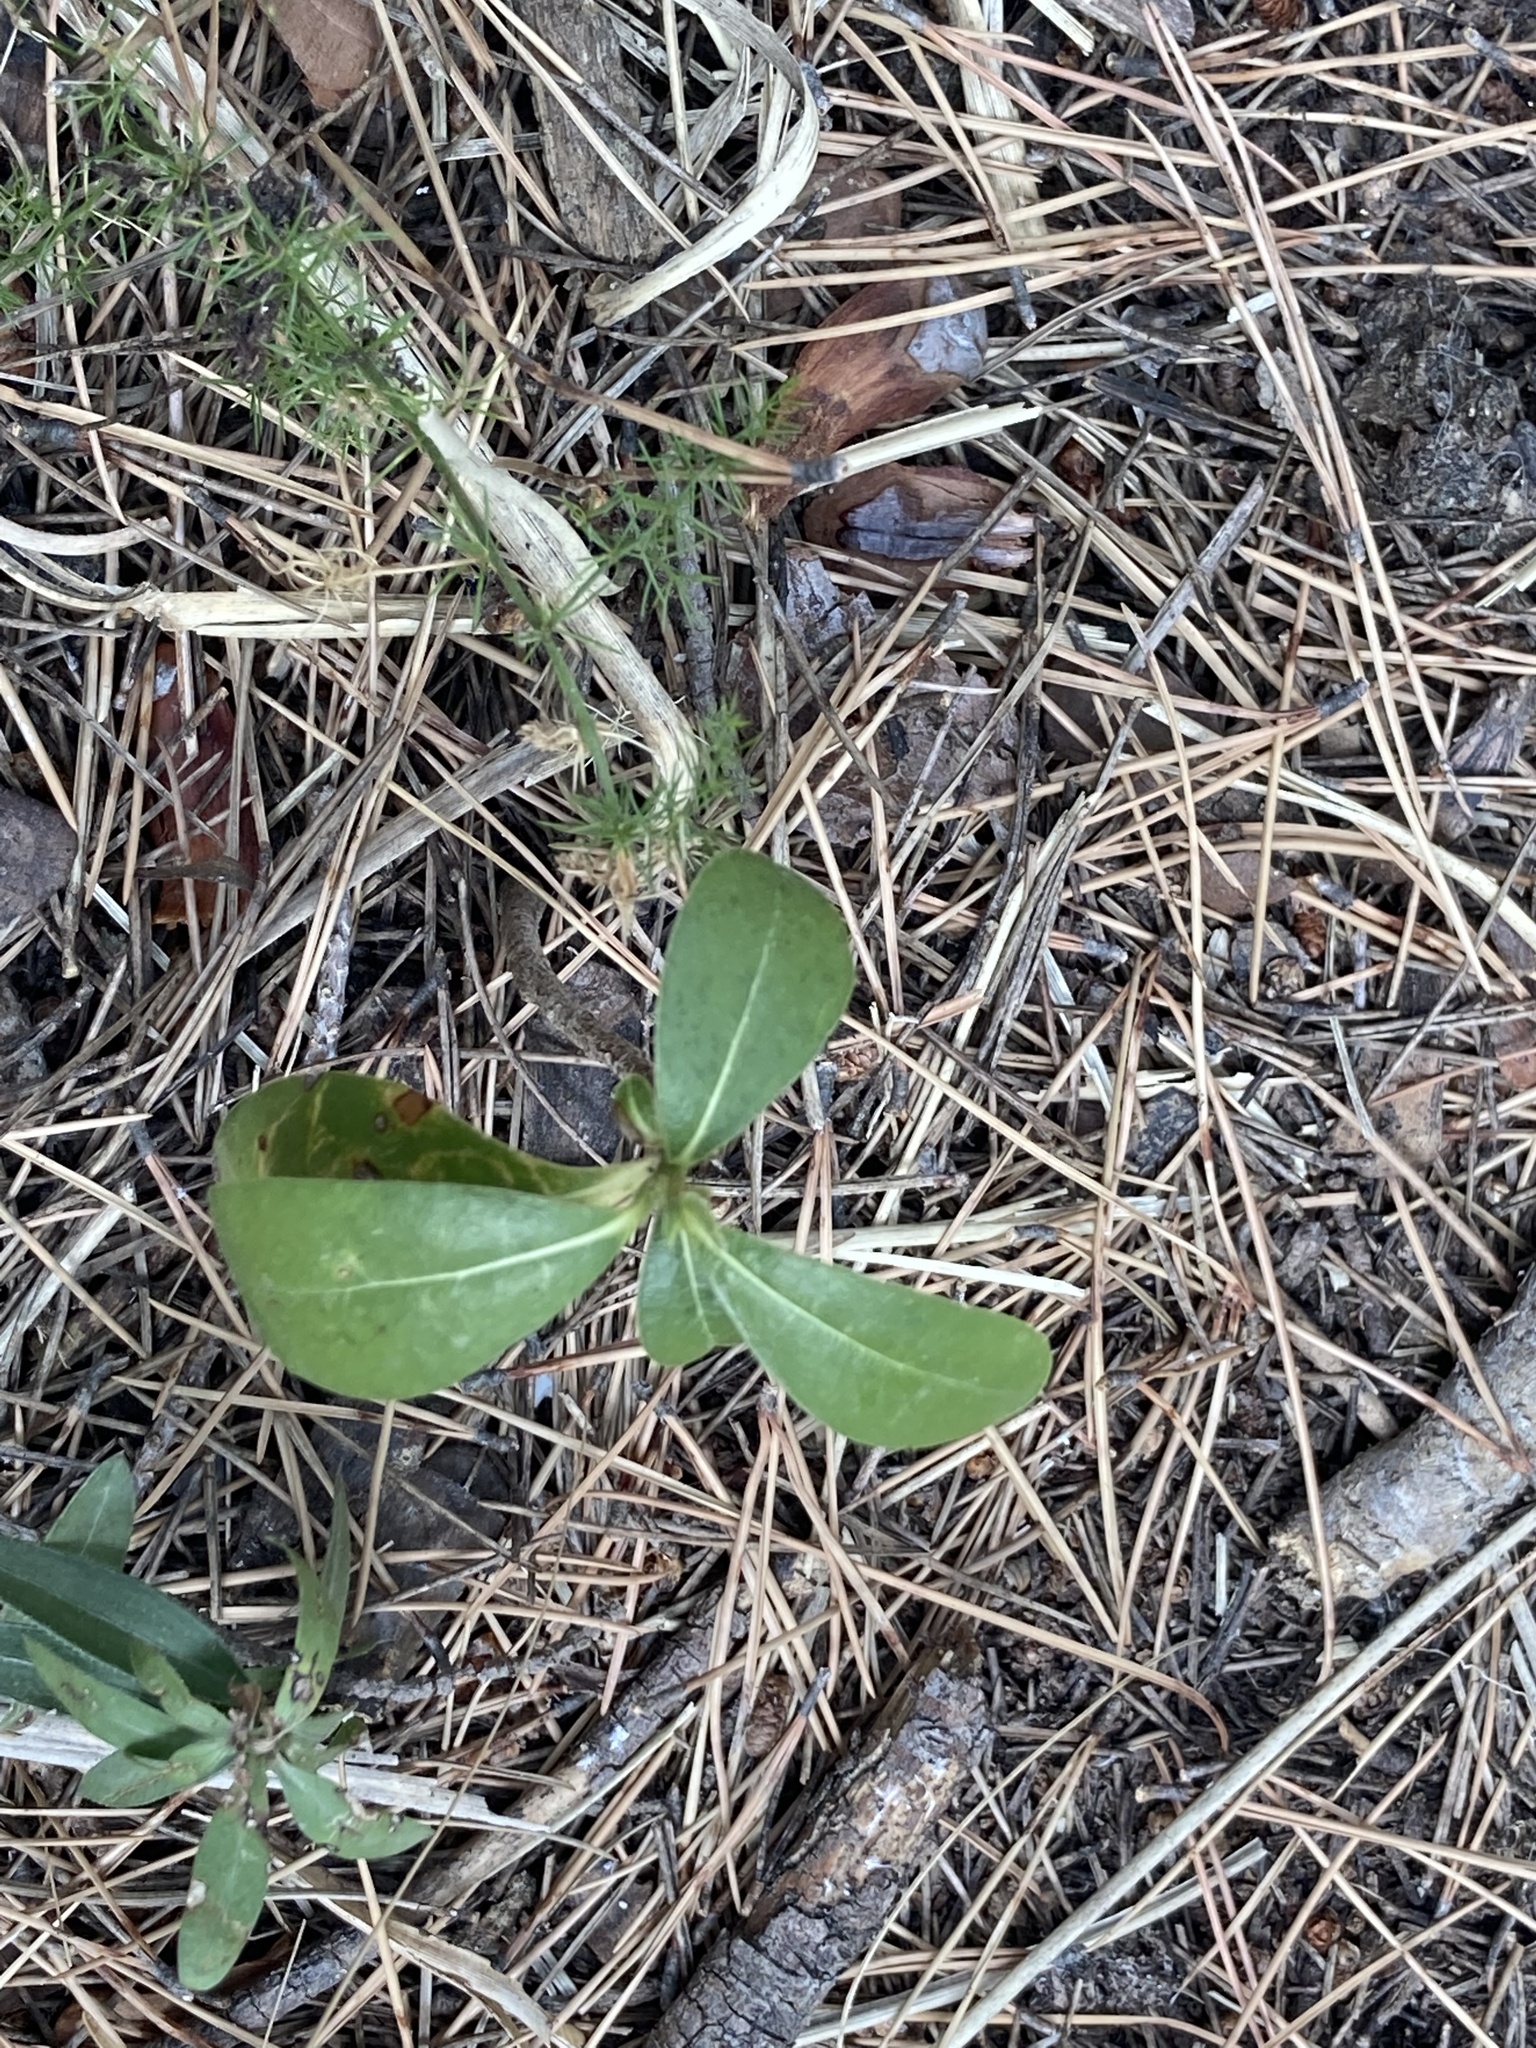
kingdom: Plantae
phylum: Tracheophyta
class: Magnoliopsida
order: Apiales
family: Pittosporaceae
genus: Pittosporum
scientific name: Pittosporum tobira
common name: Japanese cheesewood
